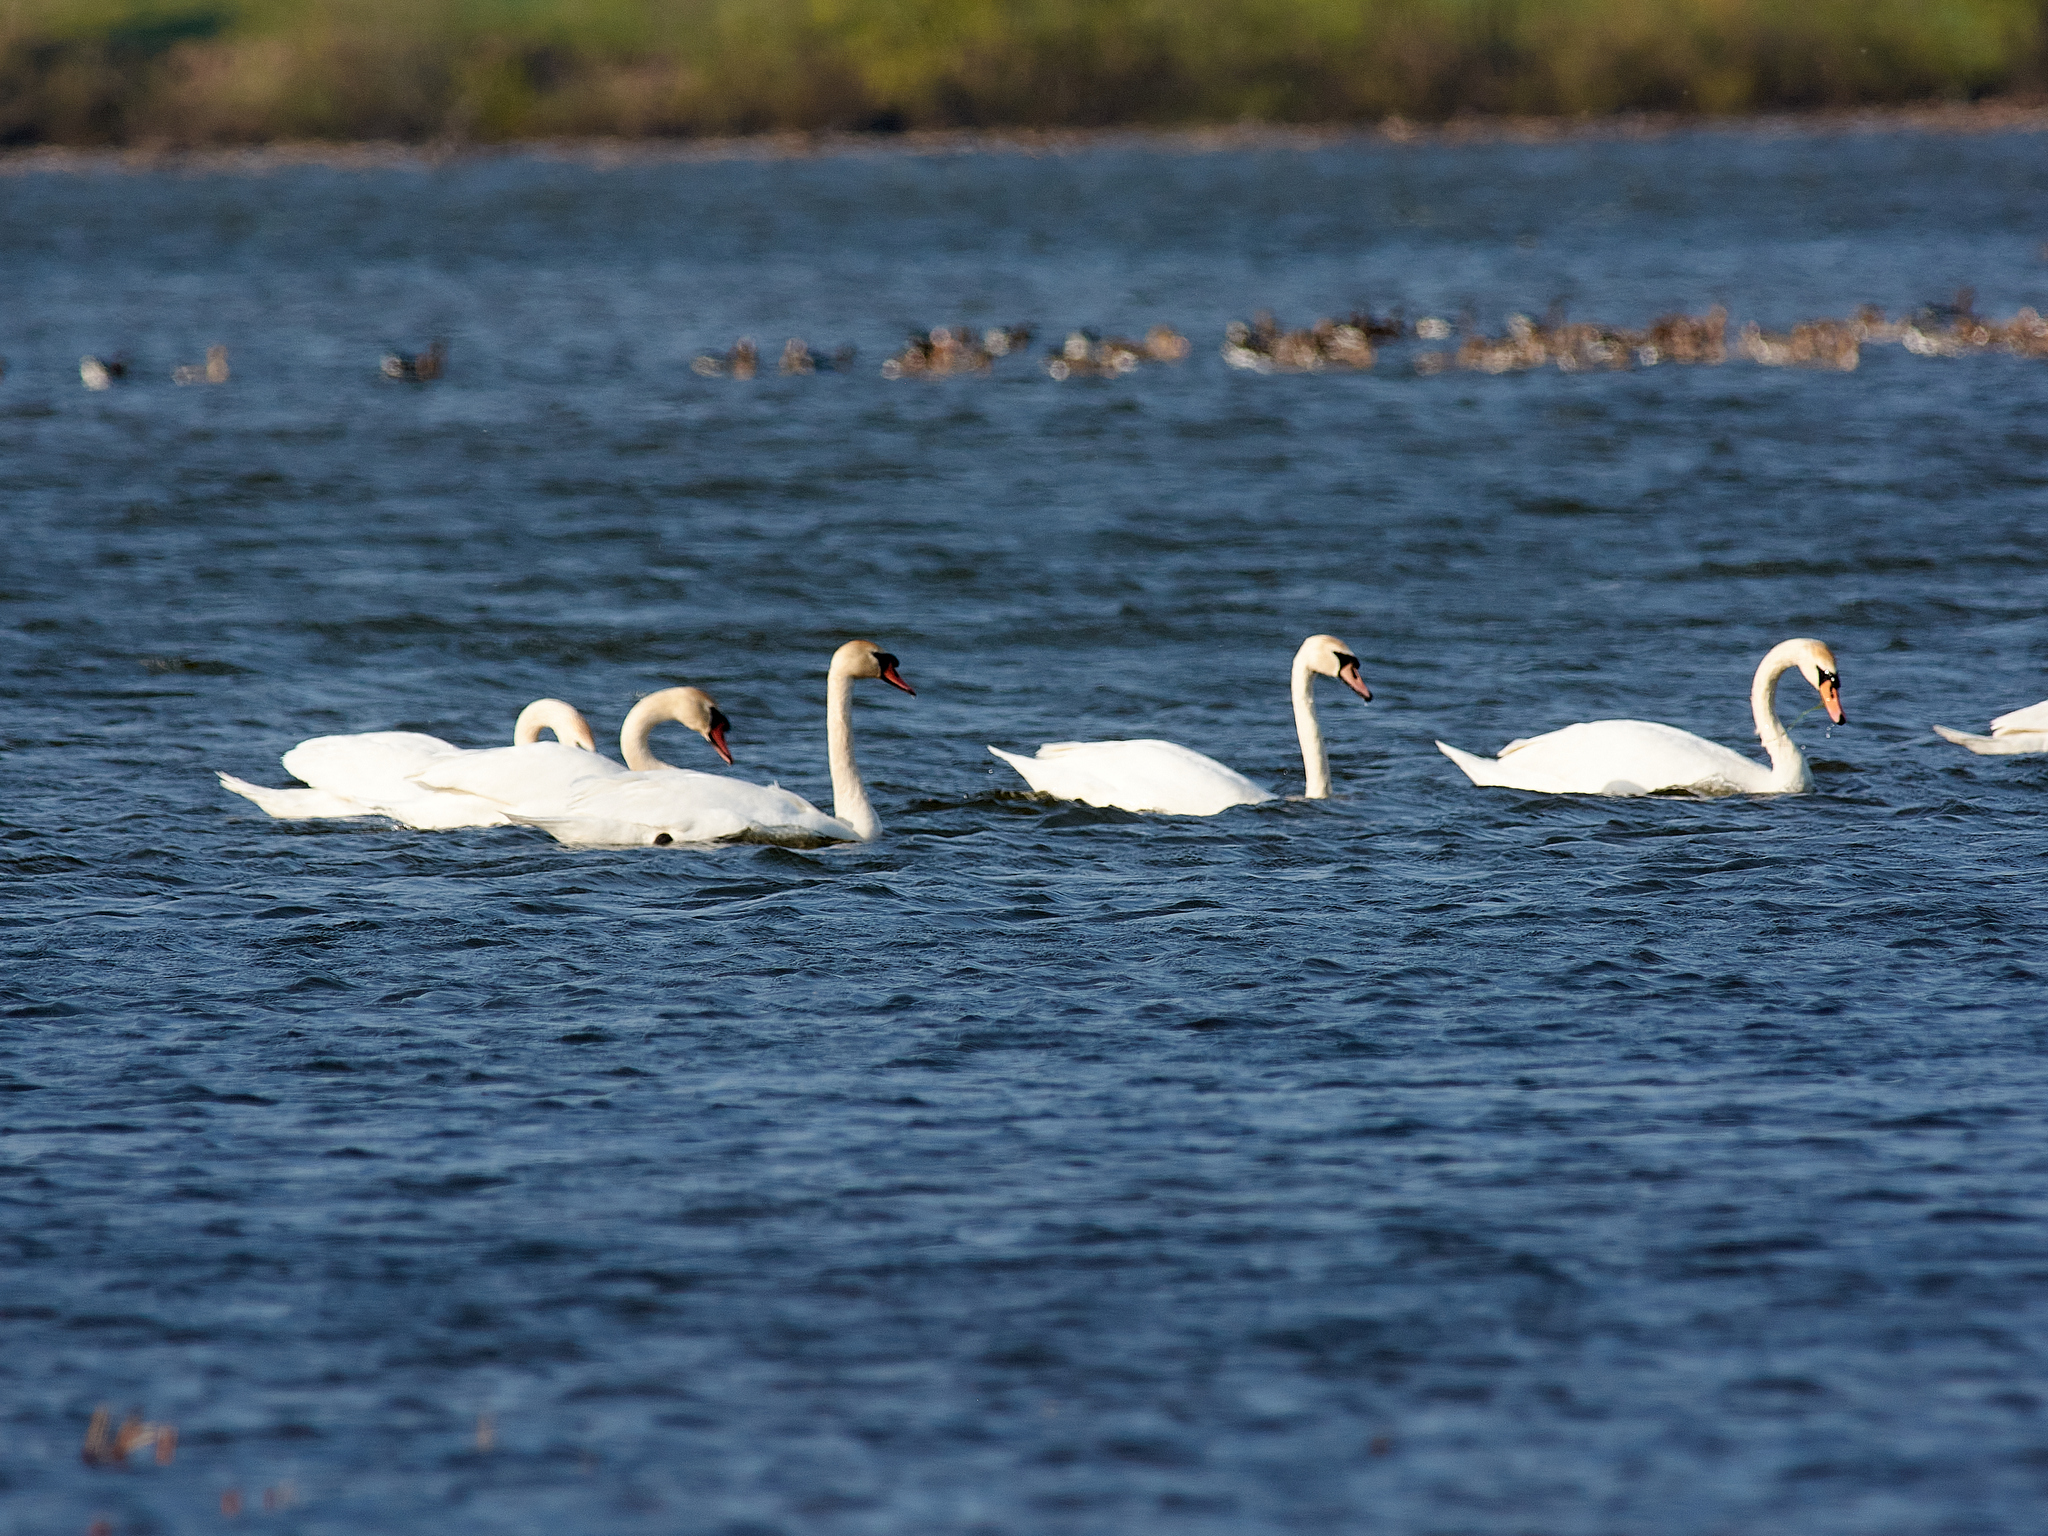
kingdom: Animalia
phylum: Chordata
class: Aves
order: Anseriformes
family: Anatidae
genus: Cygnus
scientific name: Cygnus olor
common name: Mute swan
